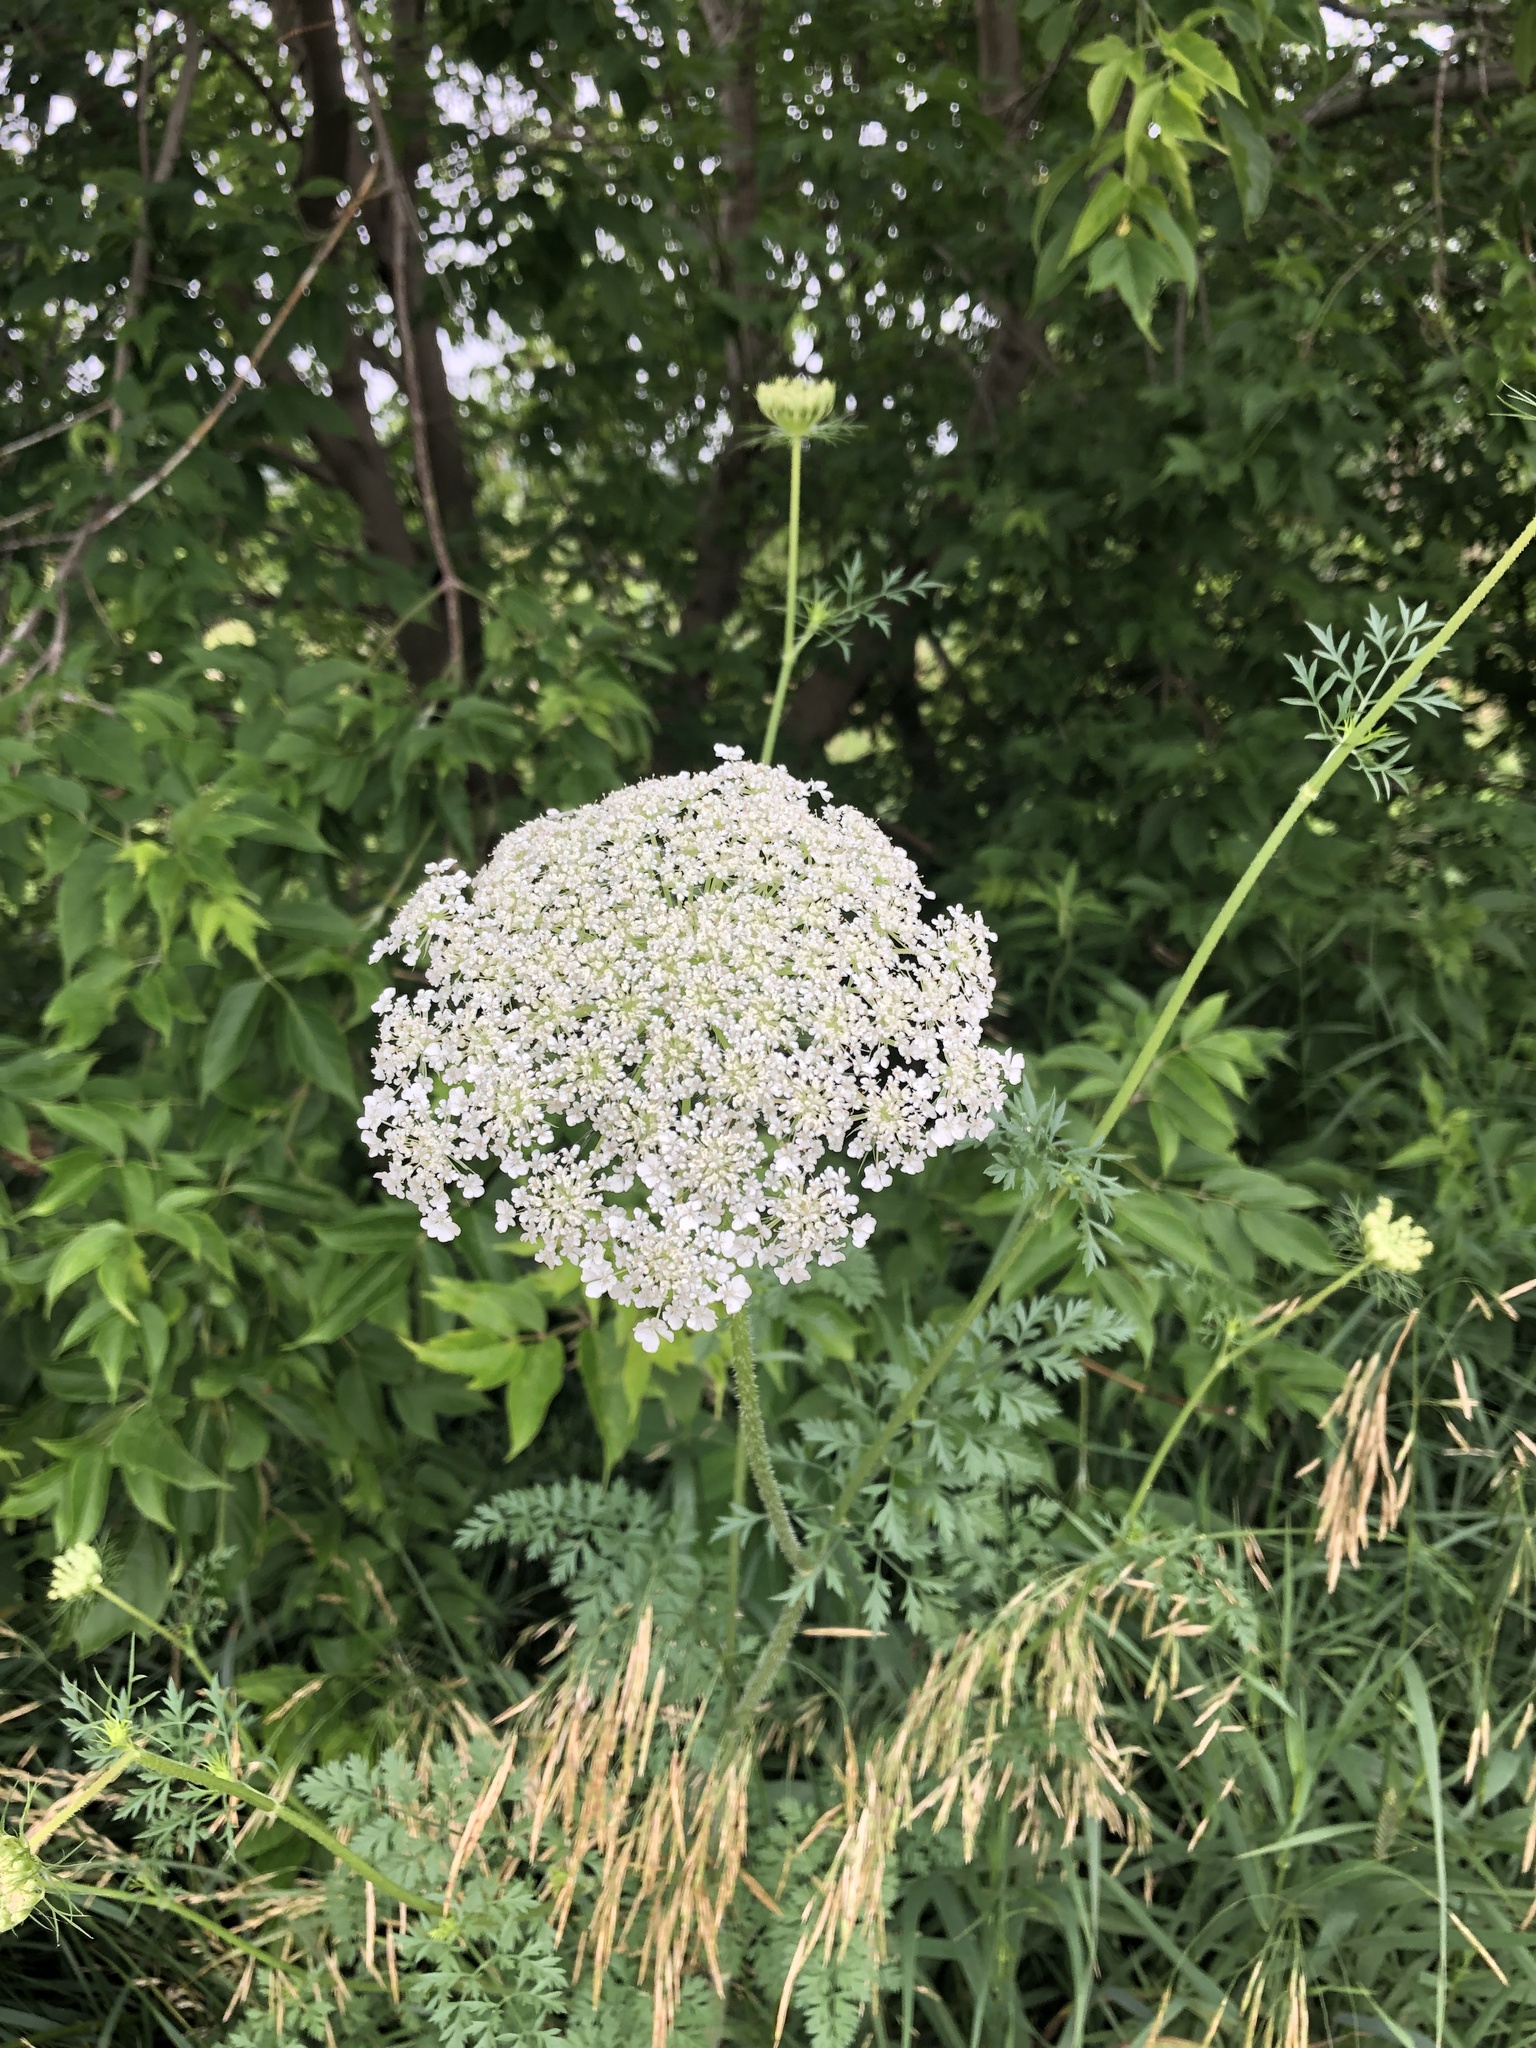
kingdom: Plantae
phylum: Tracheophyta
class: Magnoliopsida
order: Apiales
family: Apiaceae
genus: Daucus
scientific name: Daucus carota
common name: Wild carrot
